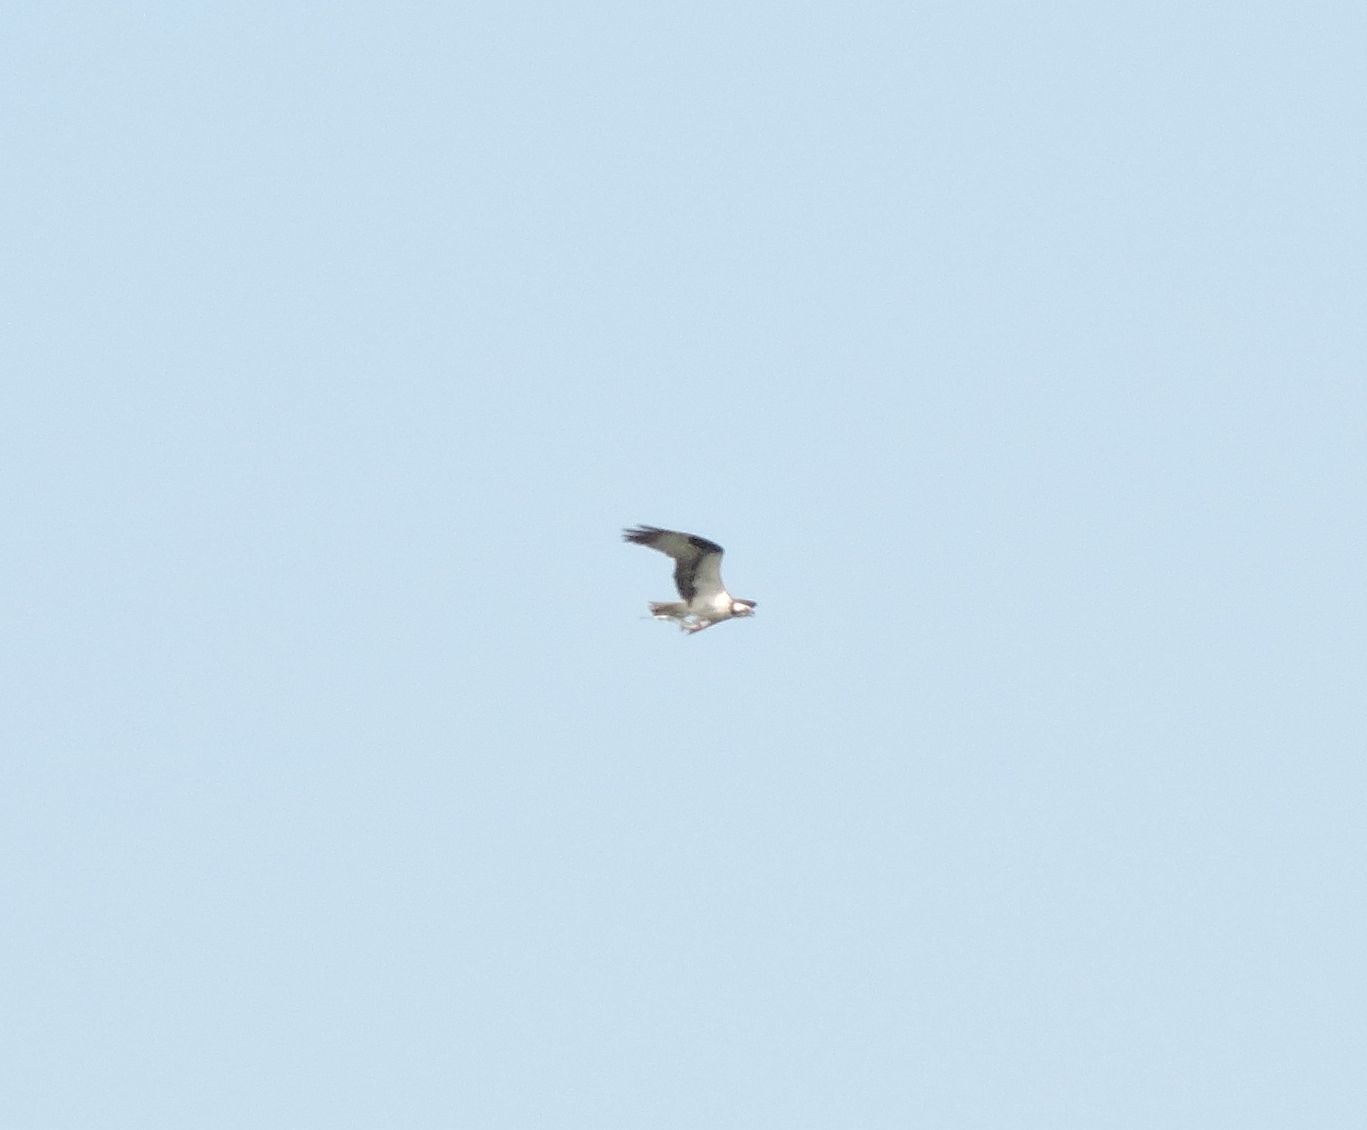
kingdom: Animalia
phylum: Chordata
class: Aves
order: Accipitriformes
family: Pandionidae
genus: Pandion
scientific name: Pandion haliaetus
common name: Osprey
